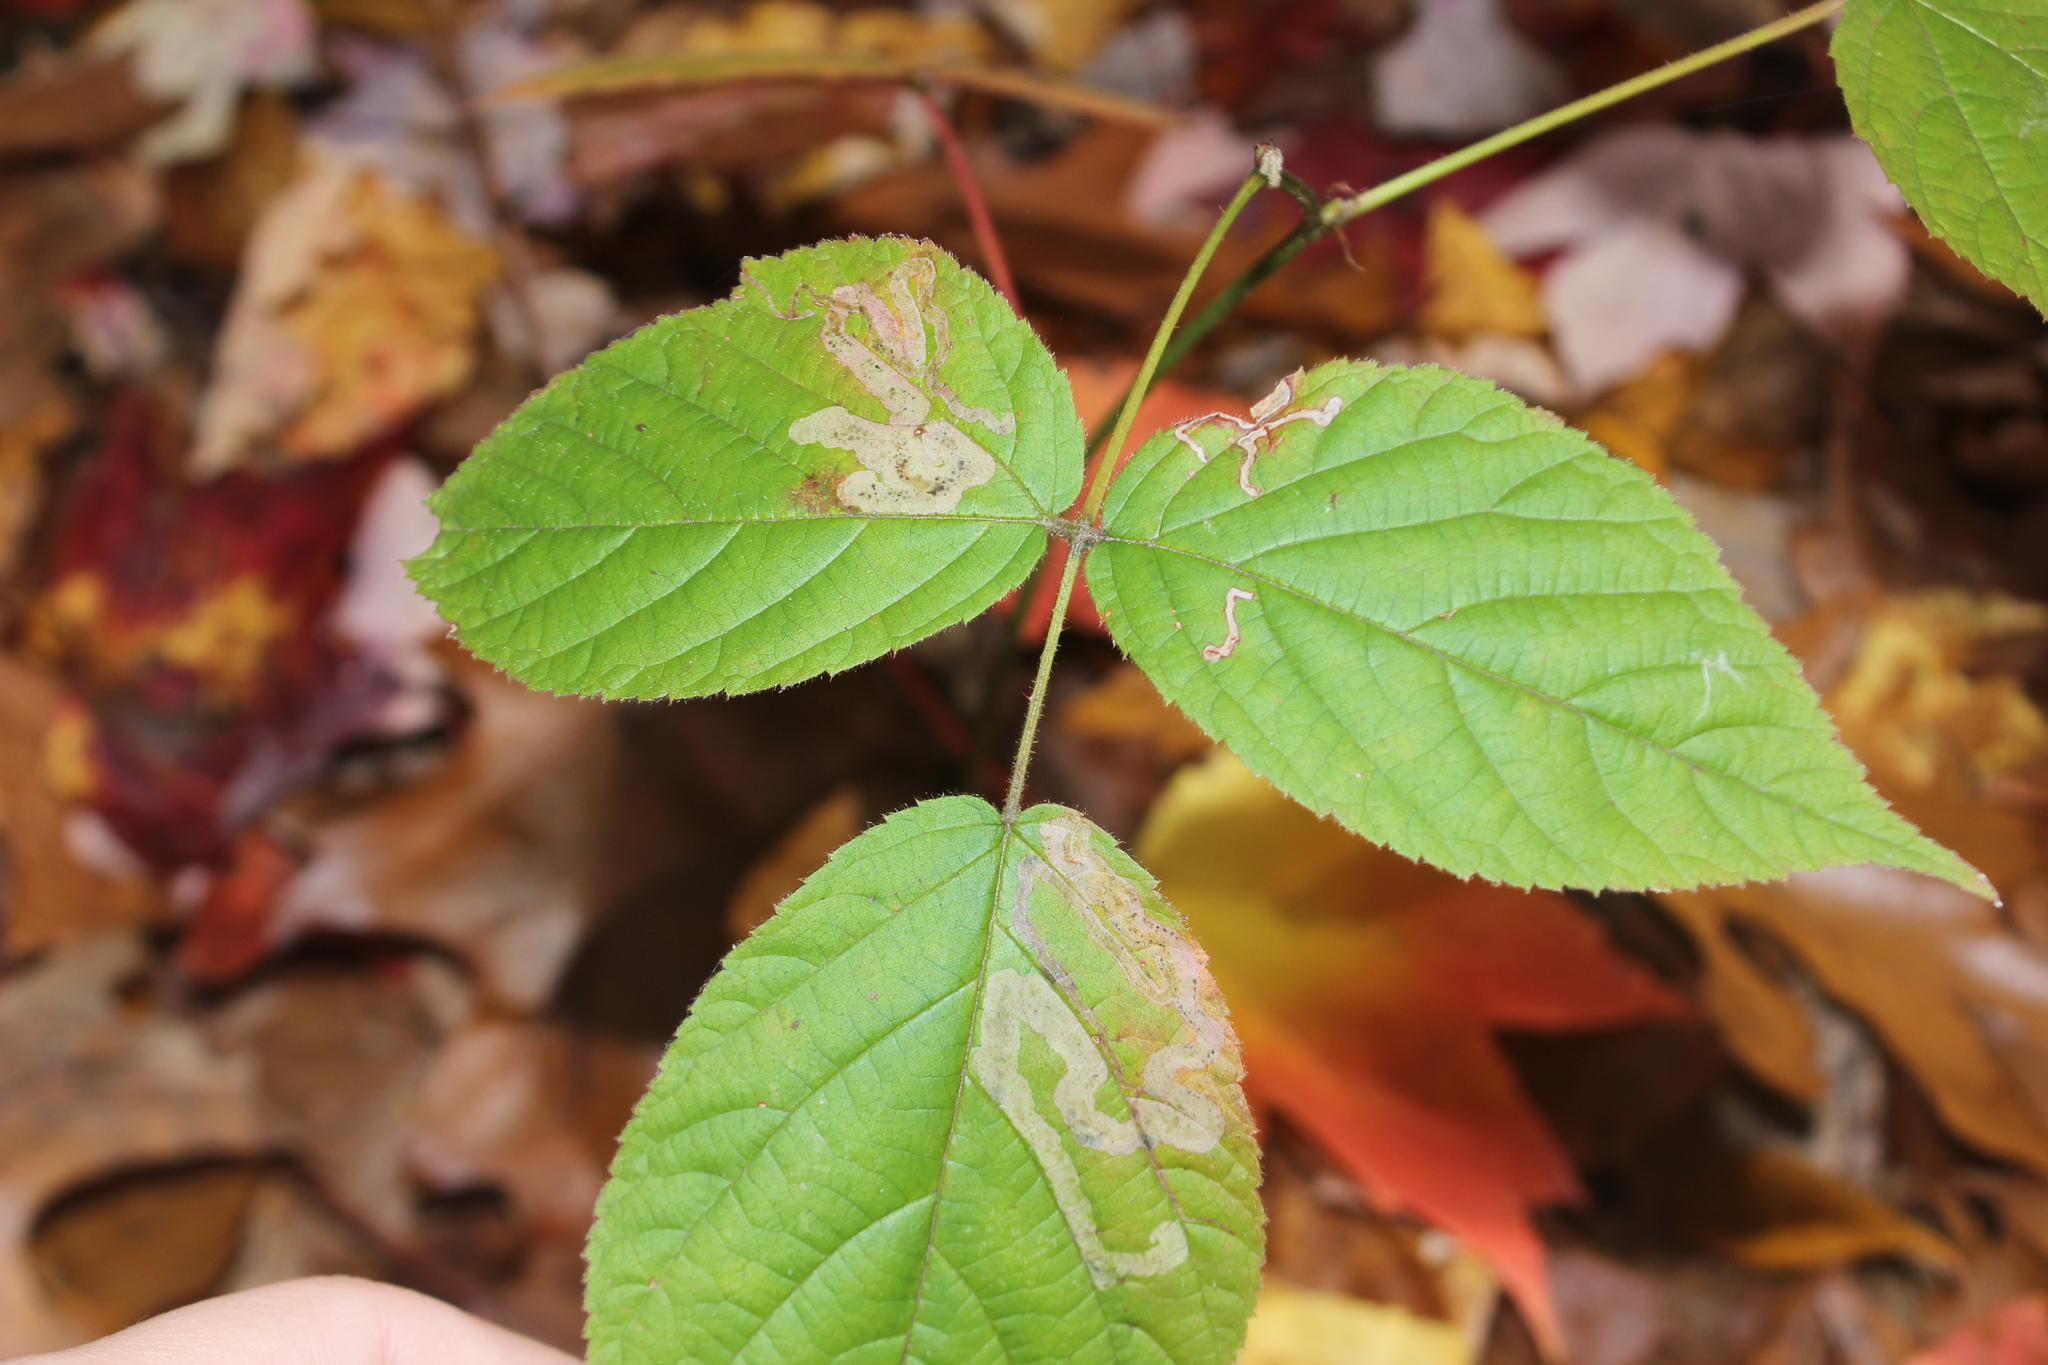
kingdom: Animalia
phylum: Arthropoda
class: Insecta
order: Diptera
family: Agromyzidae
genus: Agromyza
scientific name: Agromyza vockerothi
